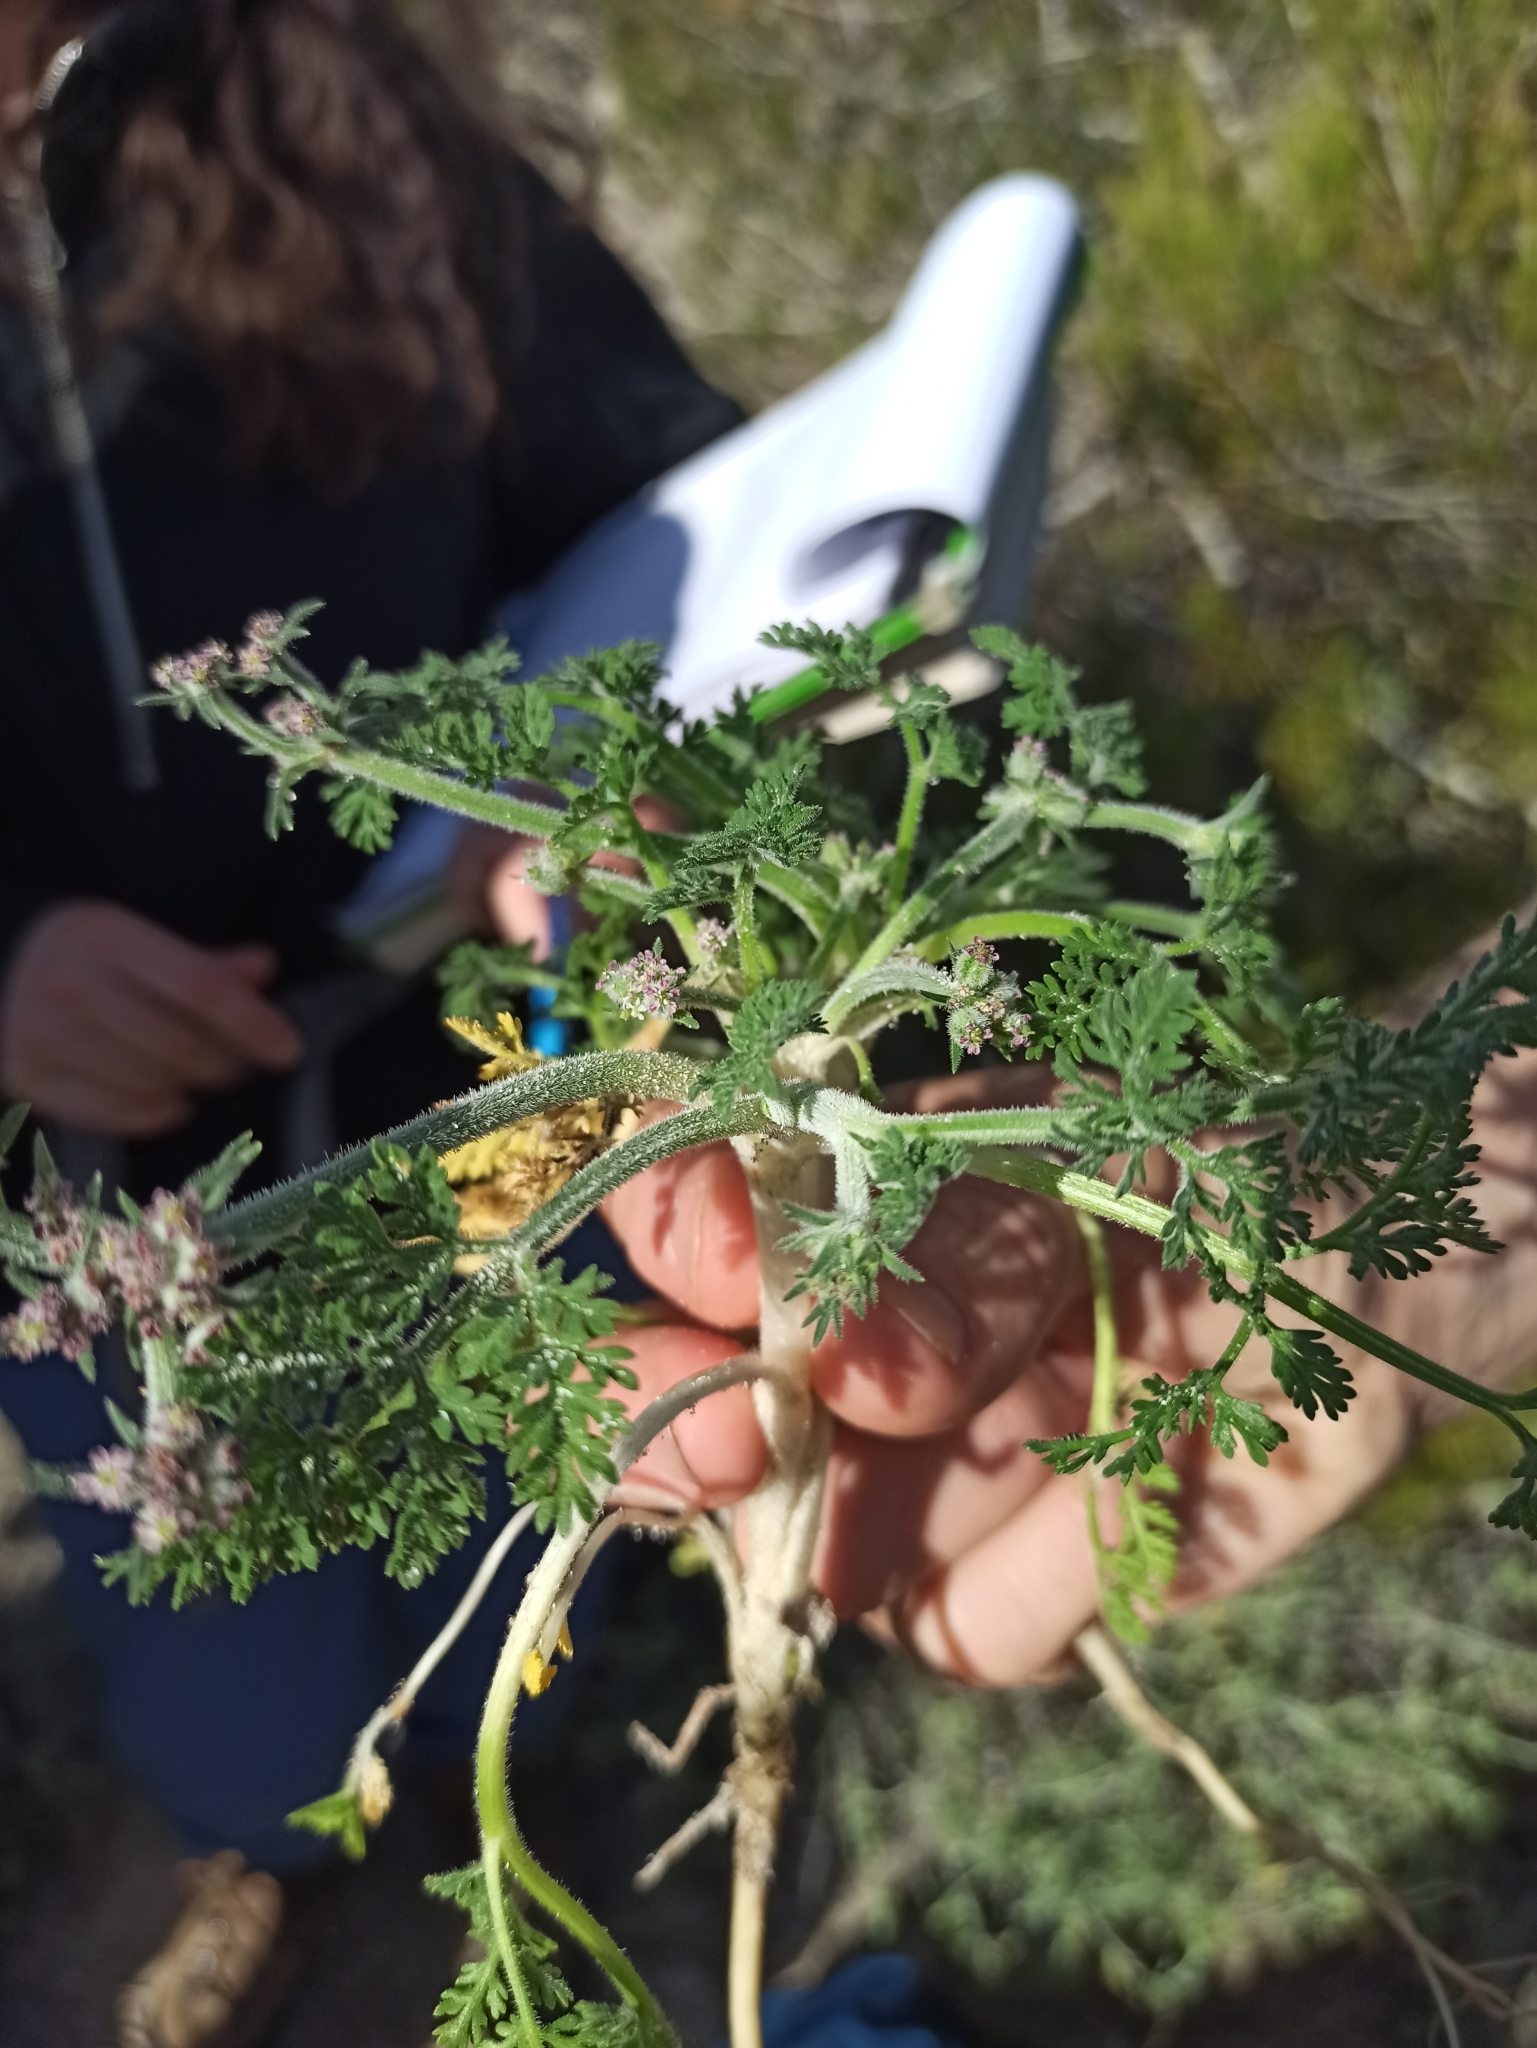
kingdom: Plantae
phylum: Tracheophyta
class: Magnoliopsida
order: Apiales
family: Apiaceae
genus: Daucus
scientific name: Daucus pumilus
